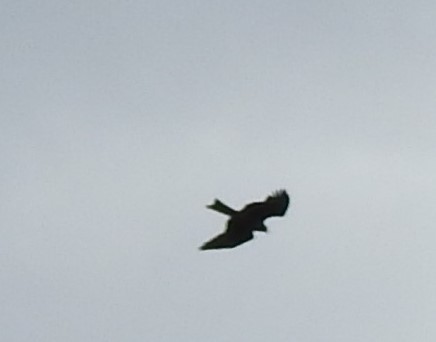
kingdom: Animalia
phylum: Chordata
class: Aves
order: Accipitriformes
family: Accipitridae
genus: Milvus
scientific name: Milvus migrans
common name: Black kite
